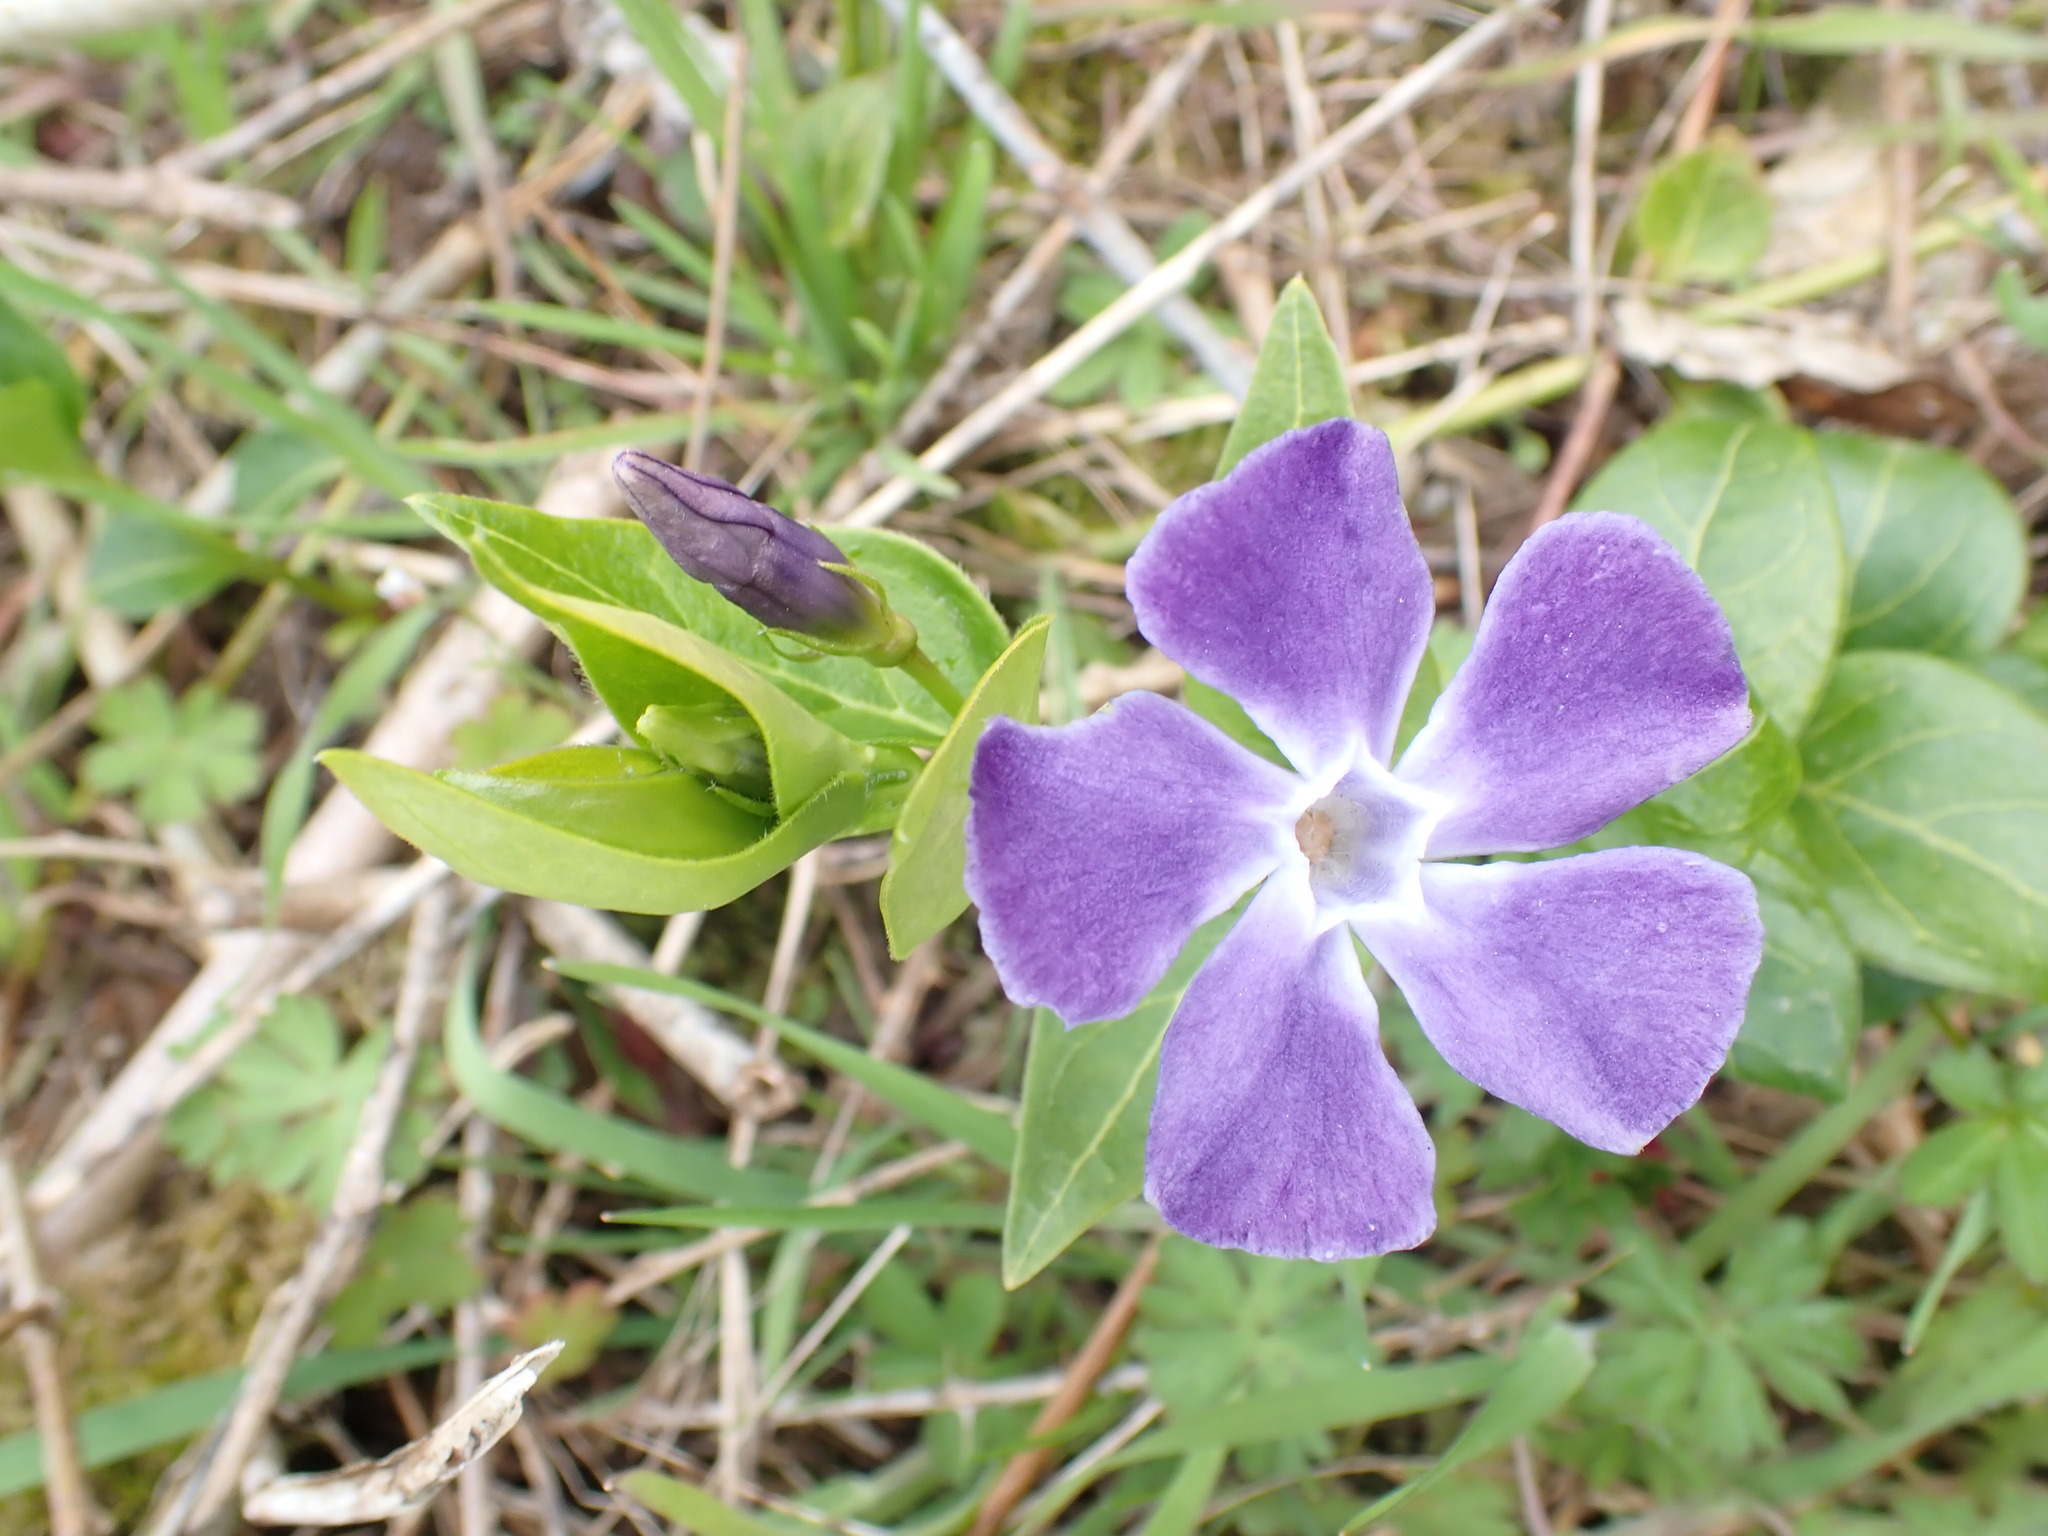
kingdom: Plantae
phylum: Tracheophyta
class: Magnoliopsida
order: Gentianales
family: Apocynaceae
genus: Vinca
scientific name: Vinca major
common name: Greater periwinkle
